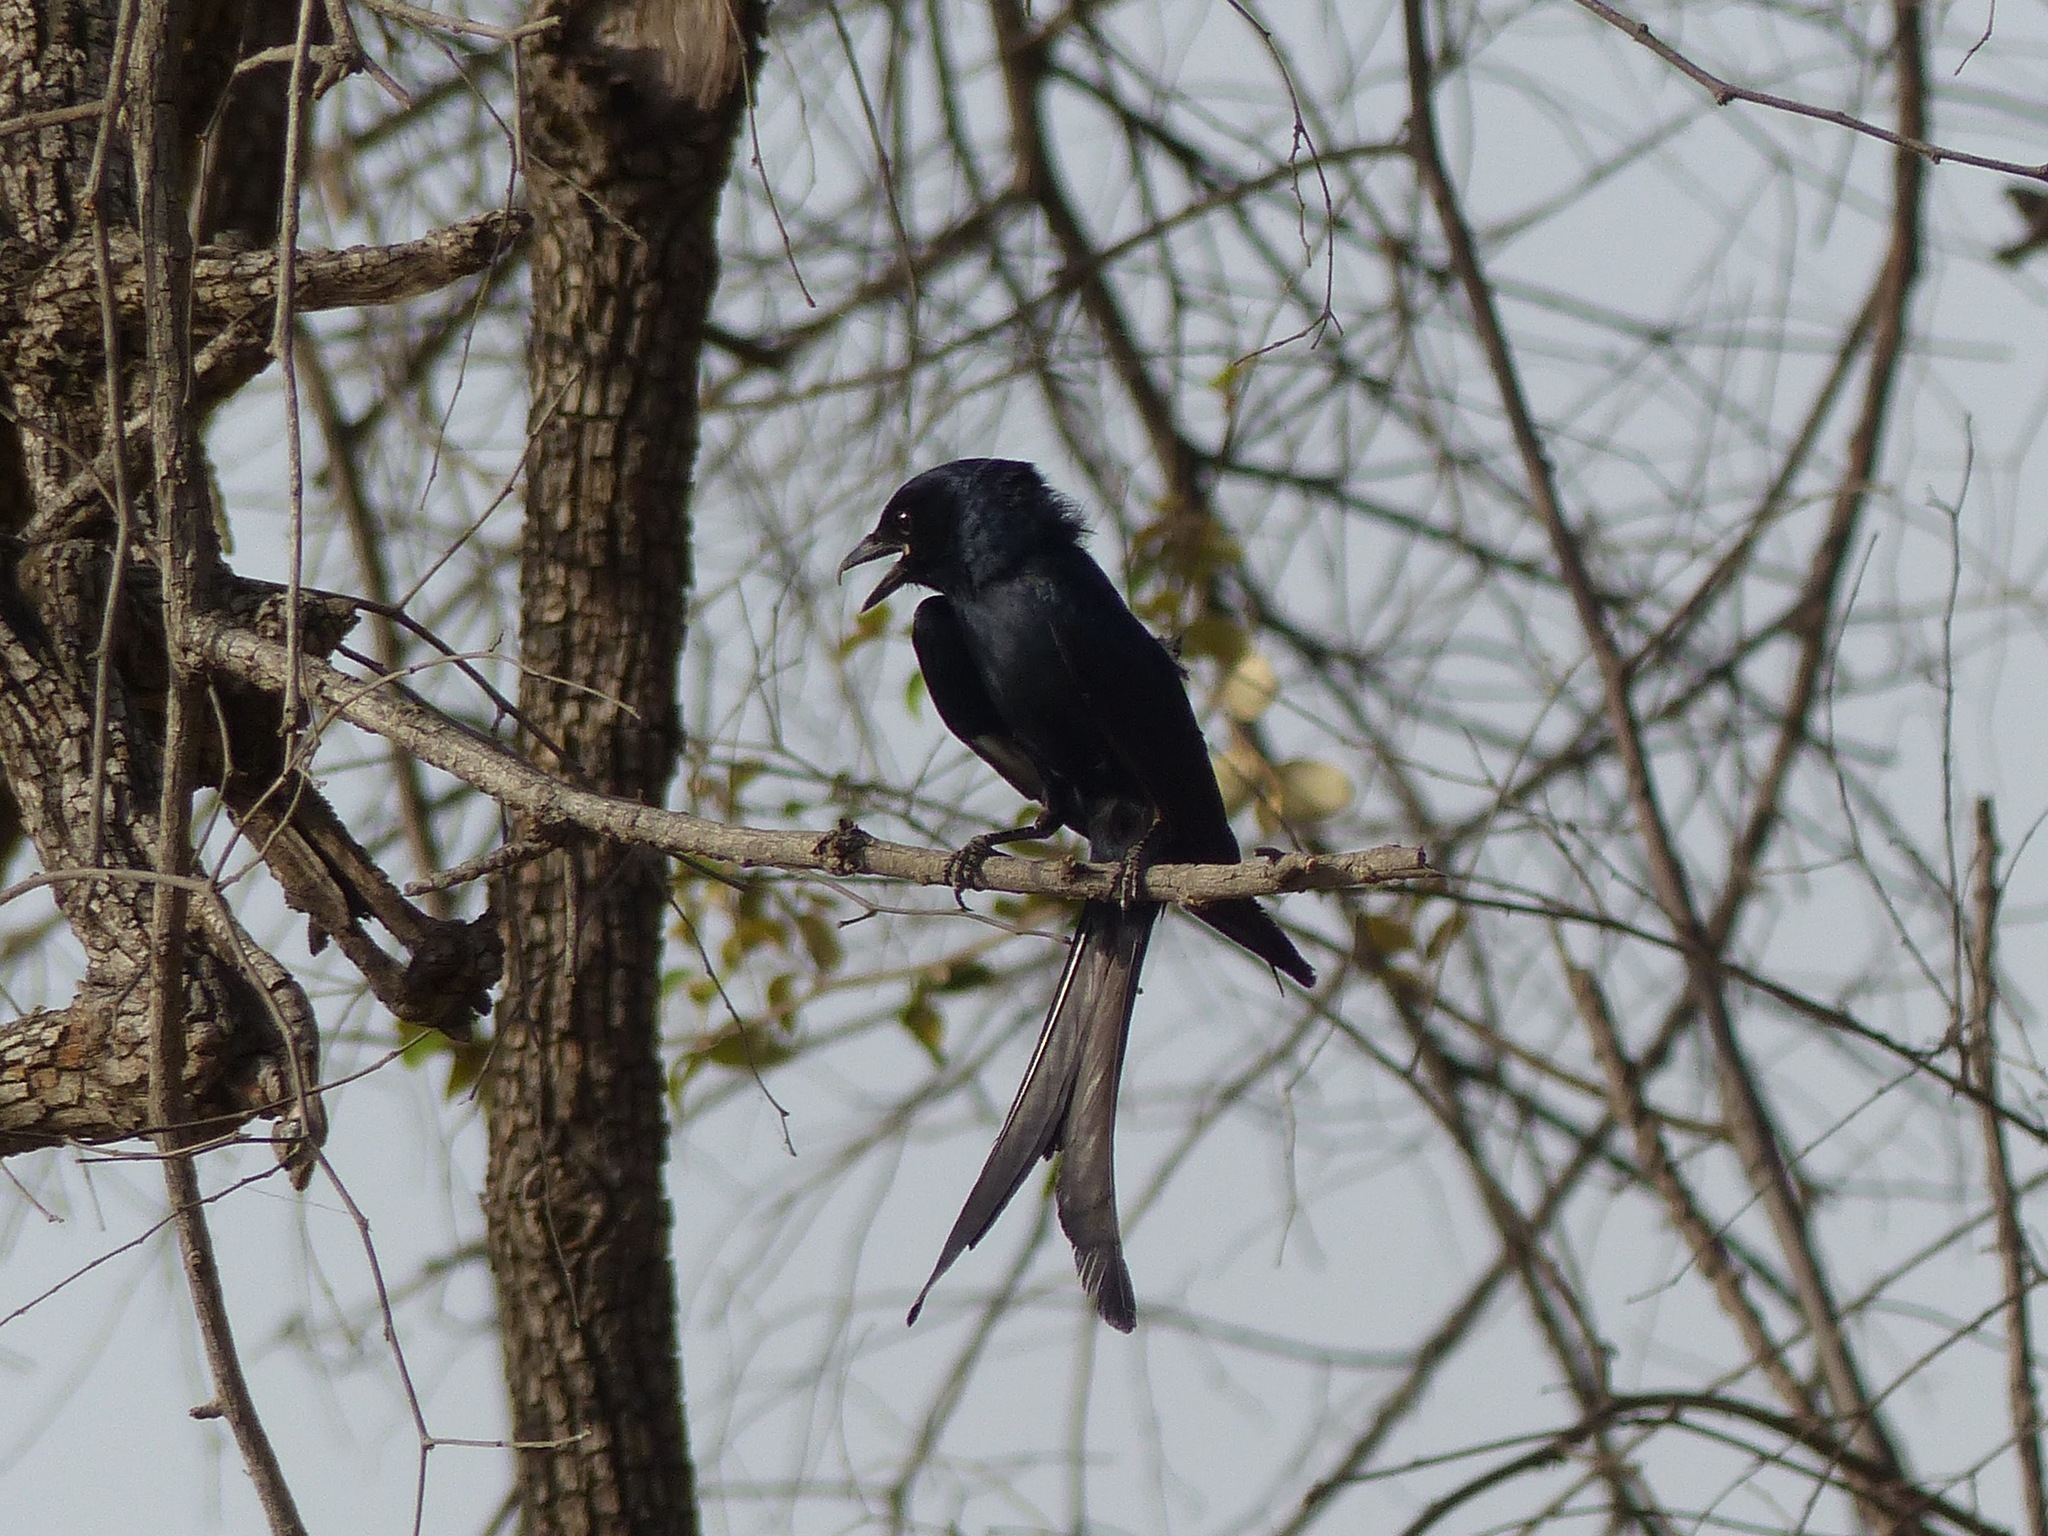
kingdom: Animalia
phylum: Chordata
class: Aves
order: Passeriformes
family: Dicruridae
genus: Dicrurus
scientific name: Dicrurus macrocercus
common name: Black drongo
